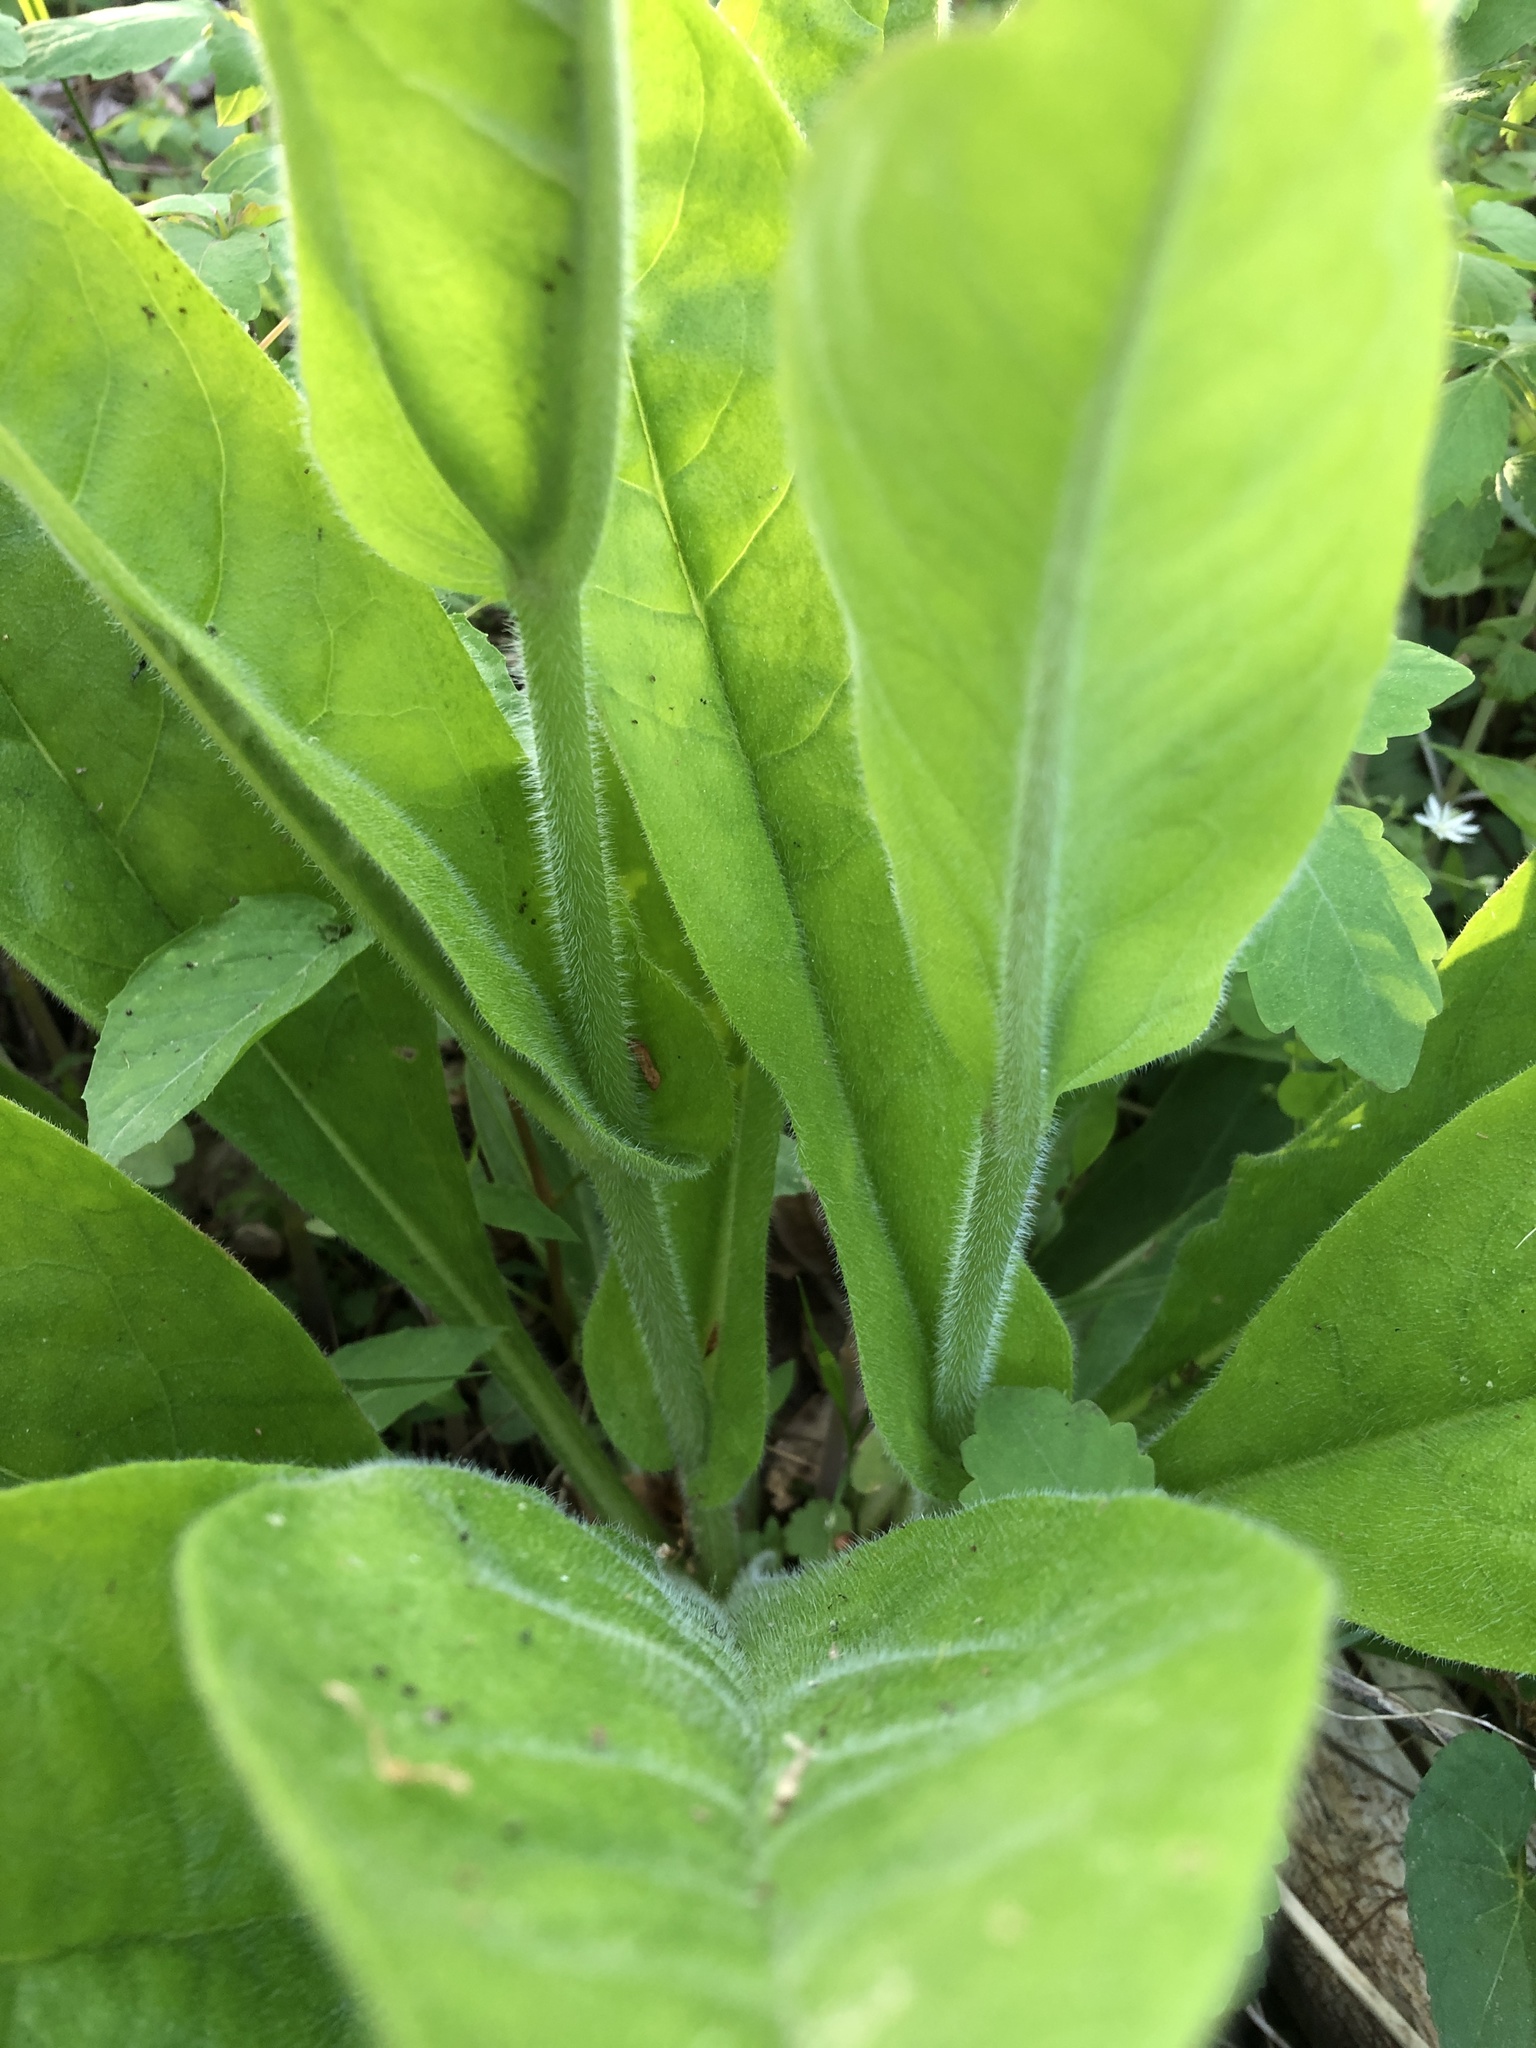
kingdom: Plantae
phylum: Tracheophyta
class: Magnoliopsida
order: Boraginales
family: Boraginaceae
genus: Andersonglossum
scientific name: Andersonglossum virginianum
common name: Wild comfrey
